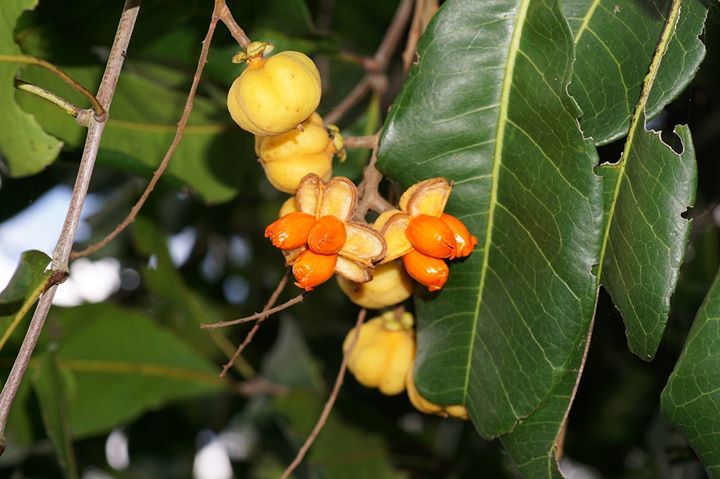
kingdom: Plantae
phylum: Tracheophyta
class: Magnoliopsida
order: Sapindales
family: Sapindaceae
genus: Cupaniopsis
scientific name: Cupaniopsis anacardioides
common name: Carrotwood
